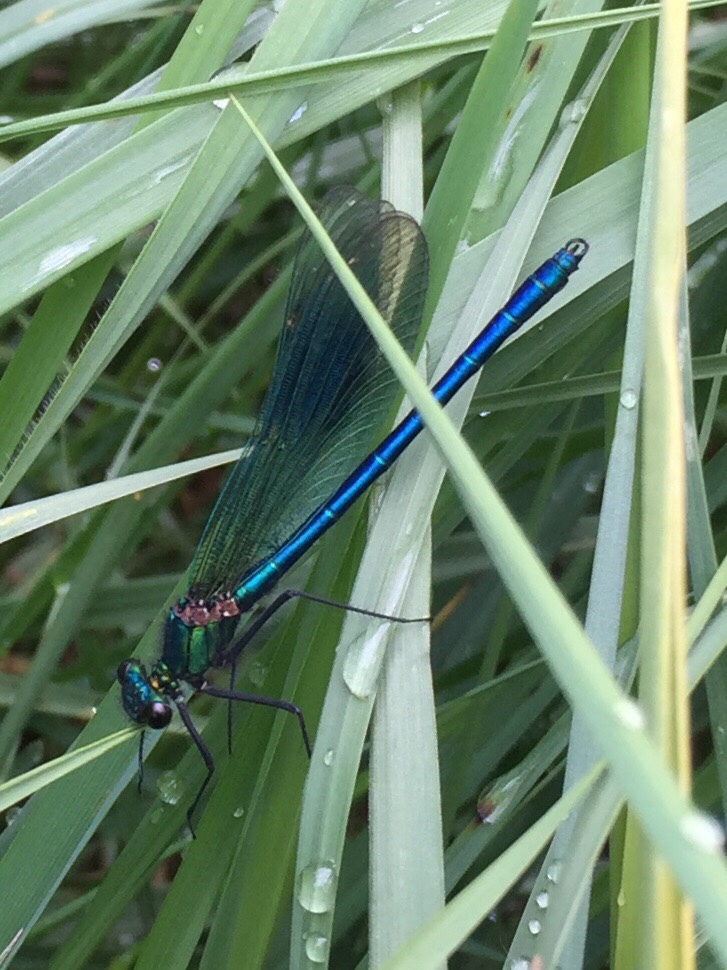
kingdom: Animalia
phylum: Arthropoda
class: Insecta
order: Odonata
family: Calopterygidae
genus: Calopteryx
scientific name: Calopteryx splendens
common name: Banded demoiselle
